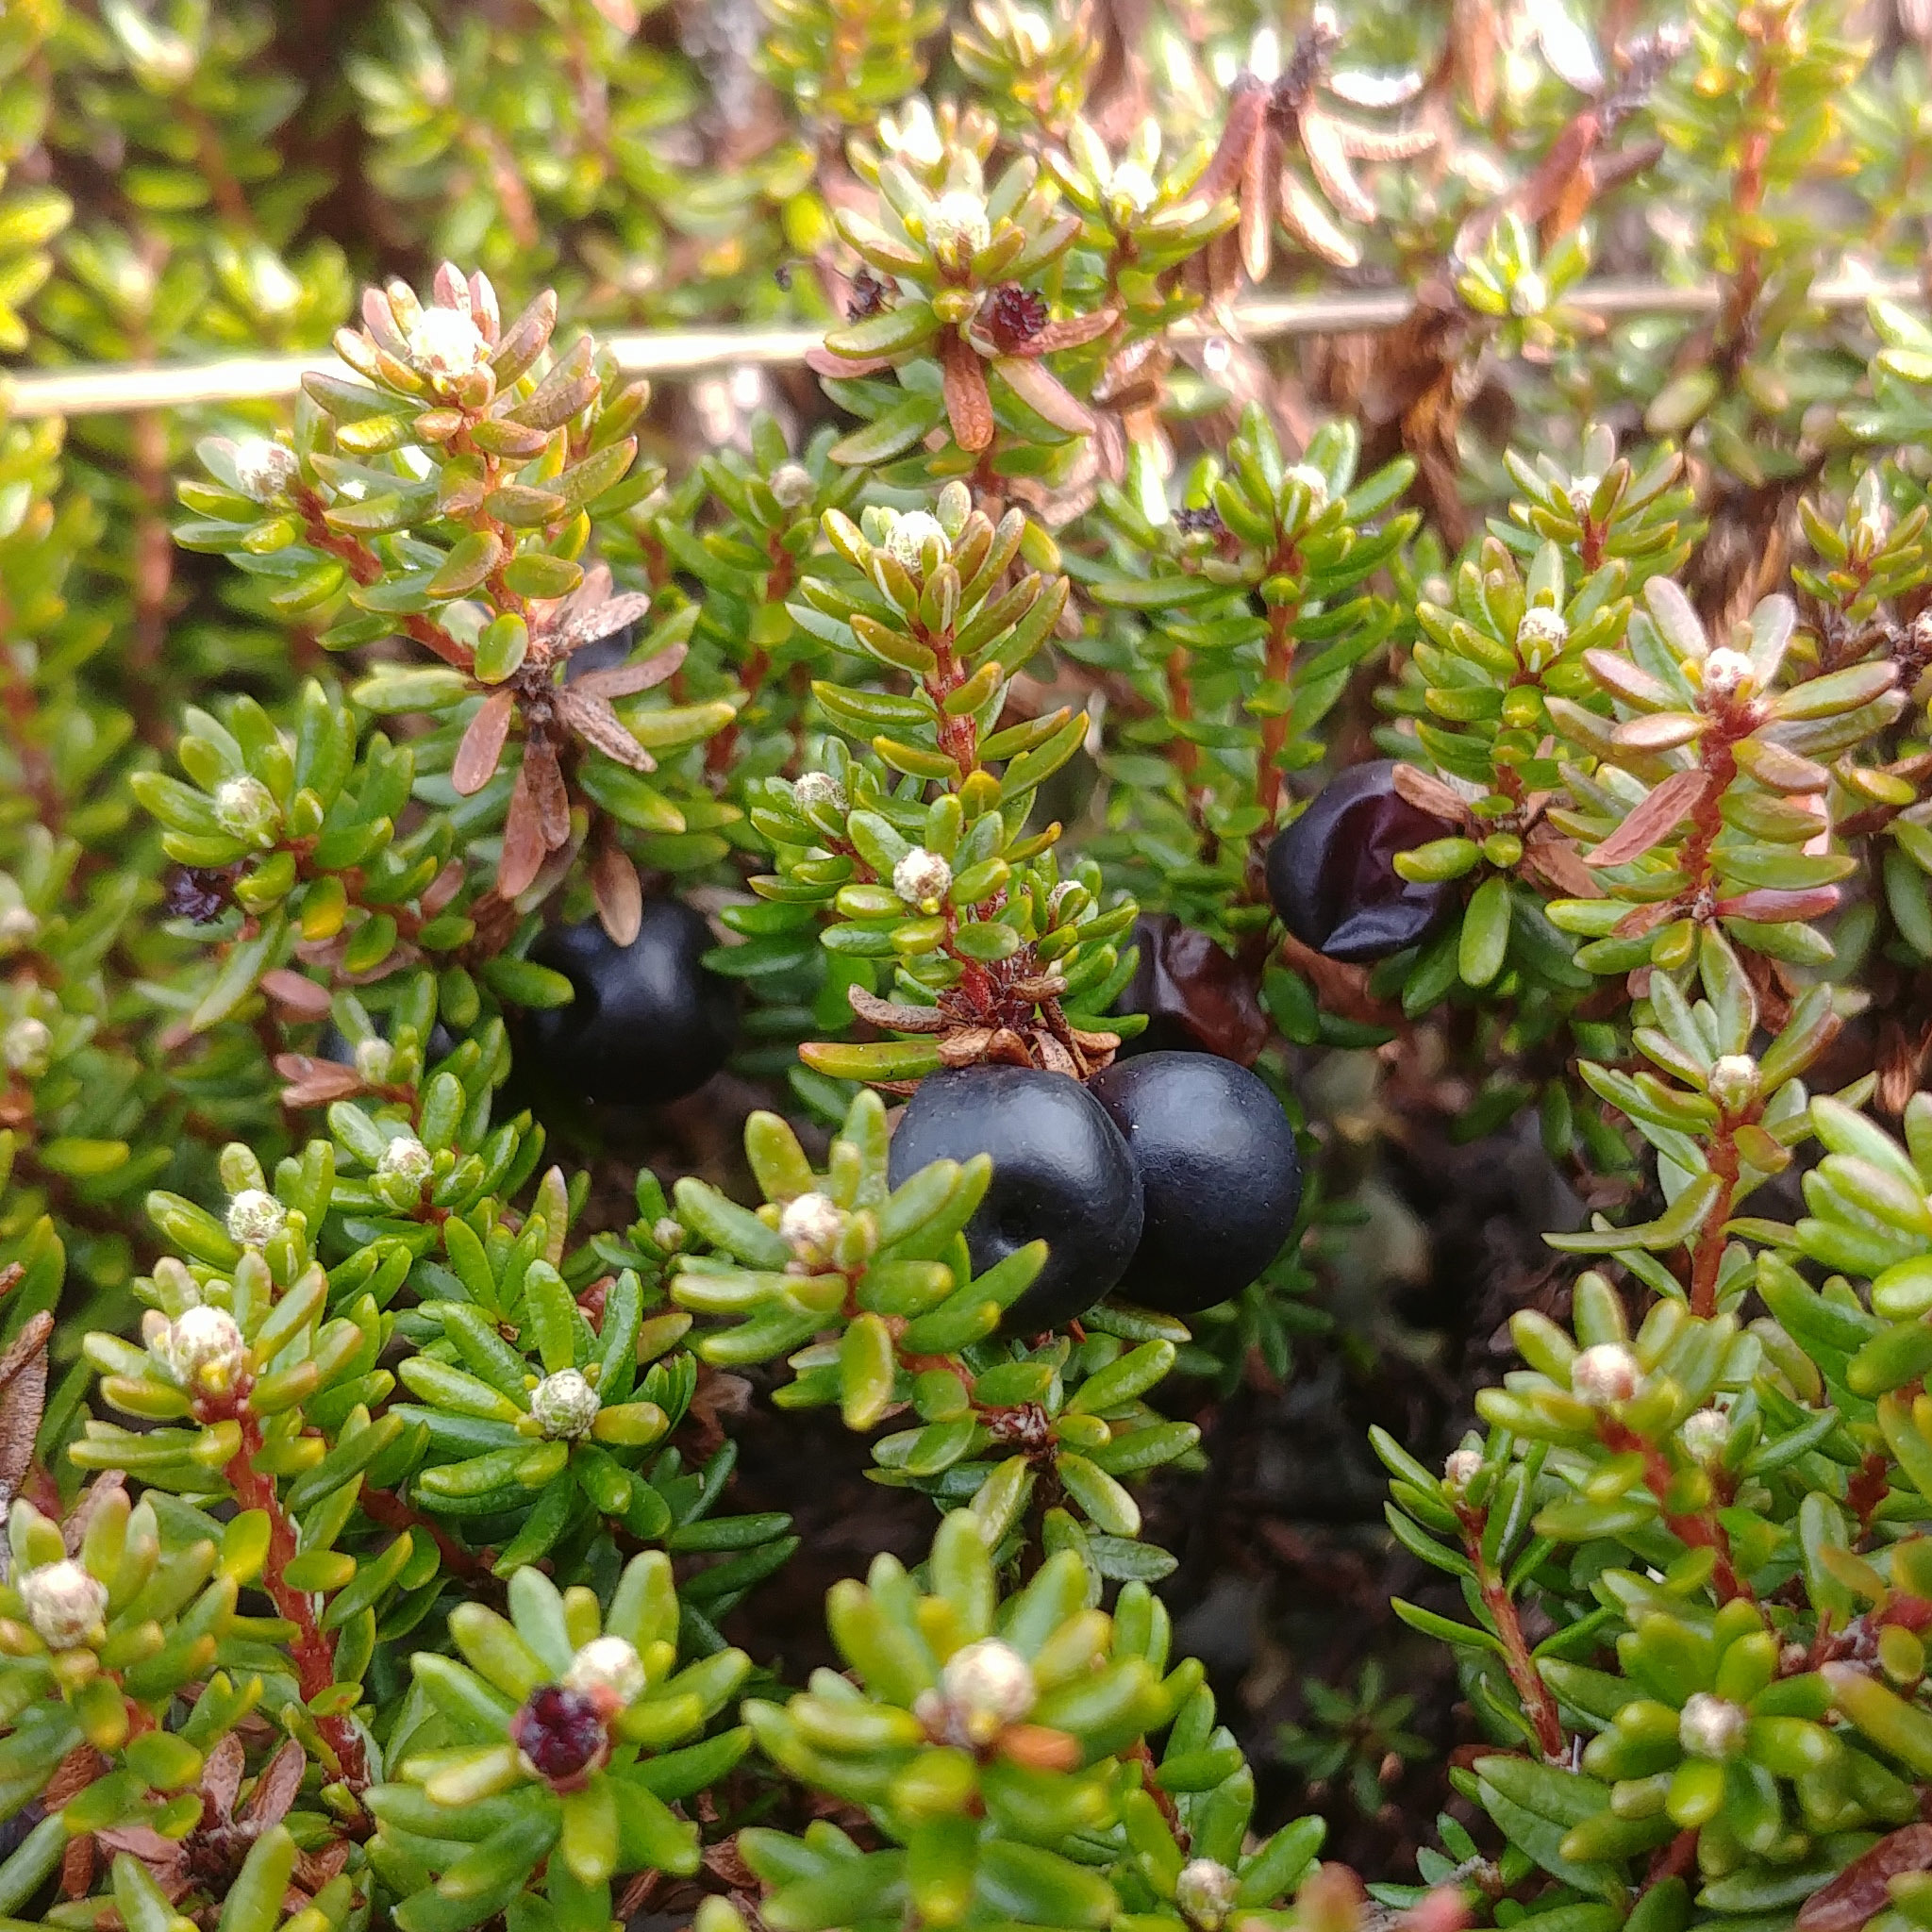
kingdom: Plantae
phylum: Tracheophyta
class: Magnoliopsida
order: Ericales
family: Ericaceae
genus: Empetrum
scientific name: Empetrum nigrum
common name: Black crowberry
